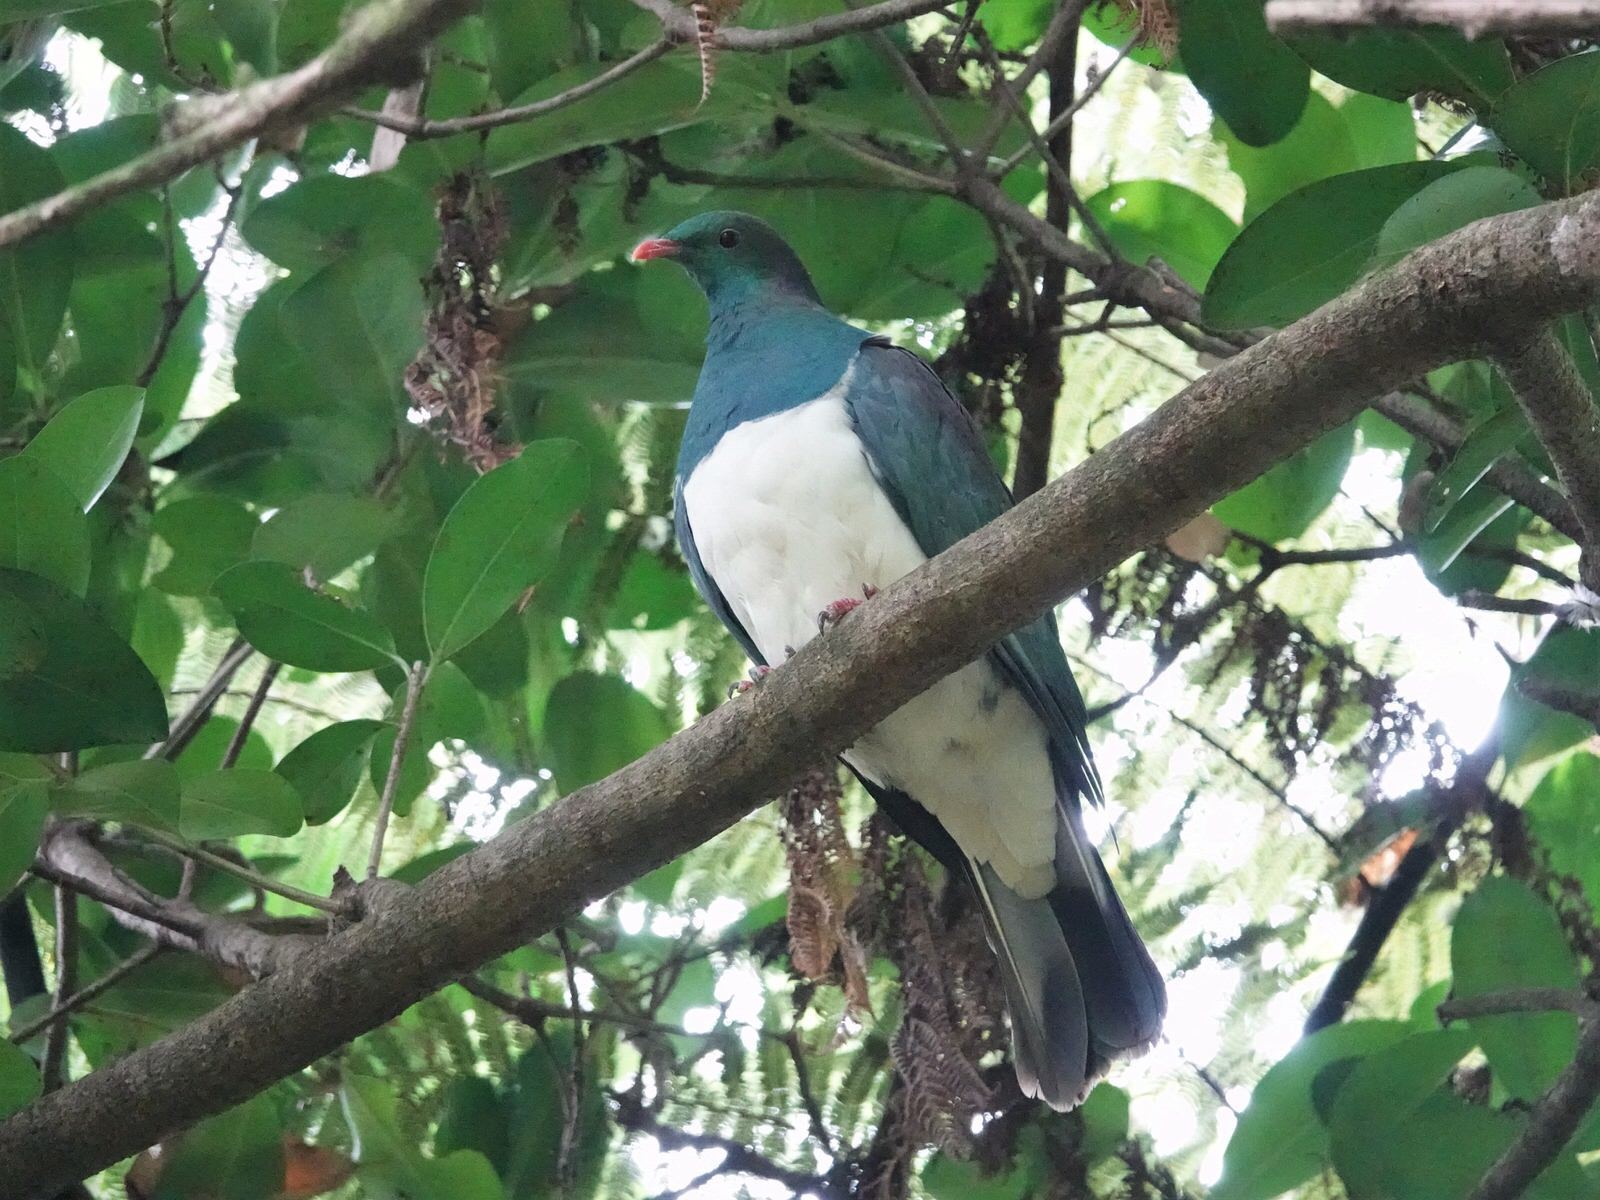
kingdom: Animalia
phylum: Chordata
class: Aves
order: Columbiformes
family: Columbidae
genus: Hemiphaga
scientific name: Hemiphaga novaeseelandiae
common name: New zealand pigeon
